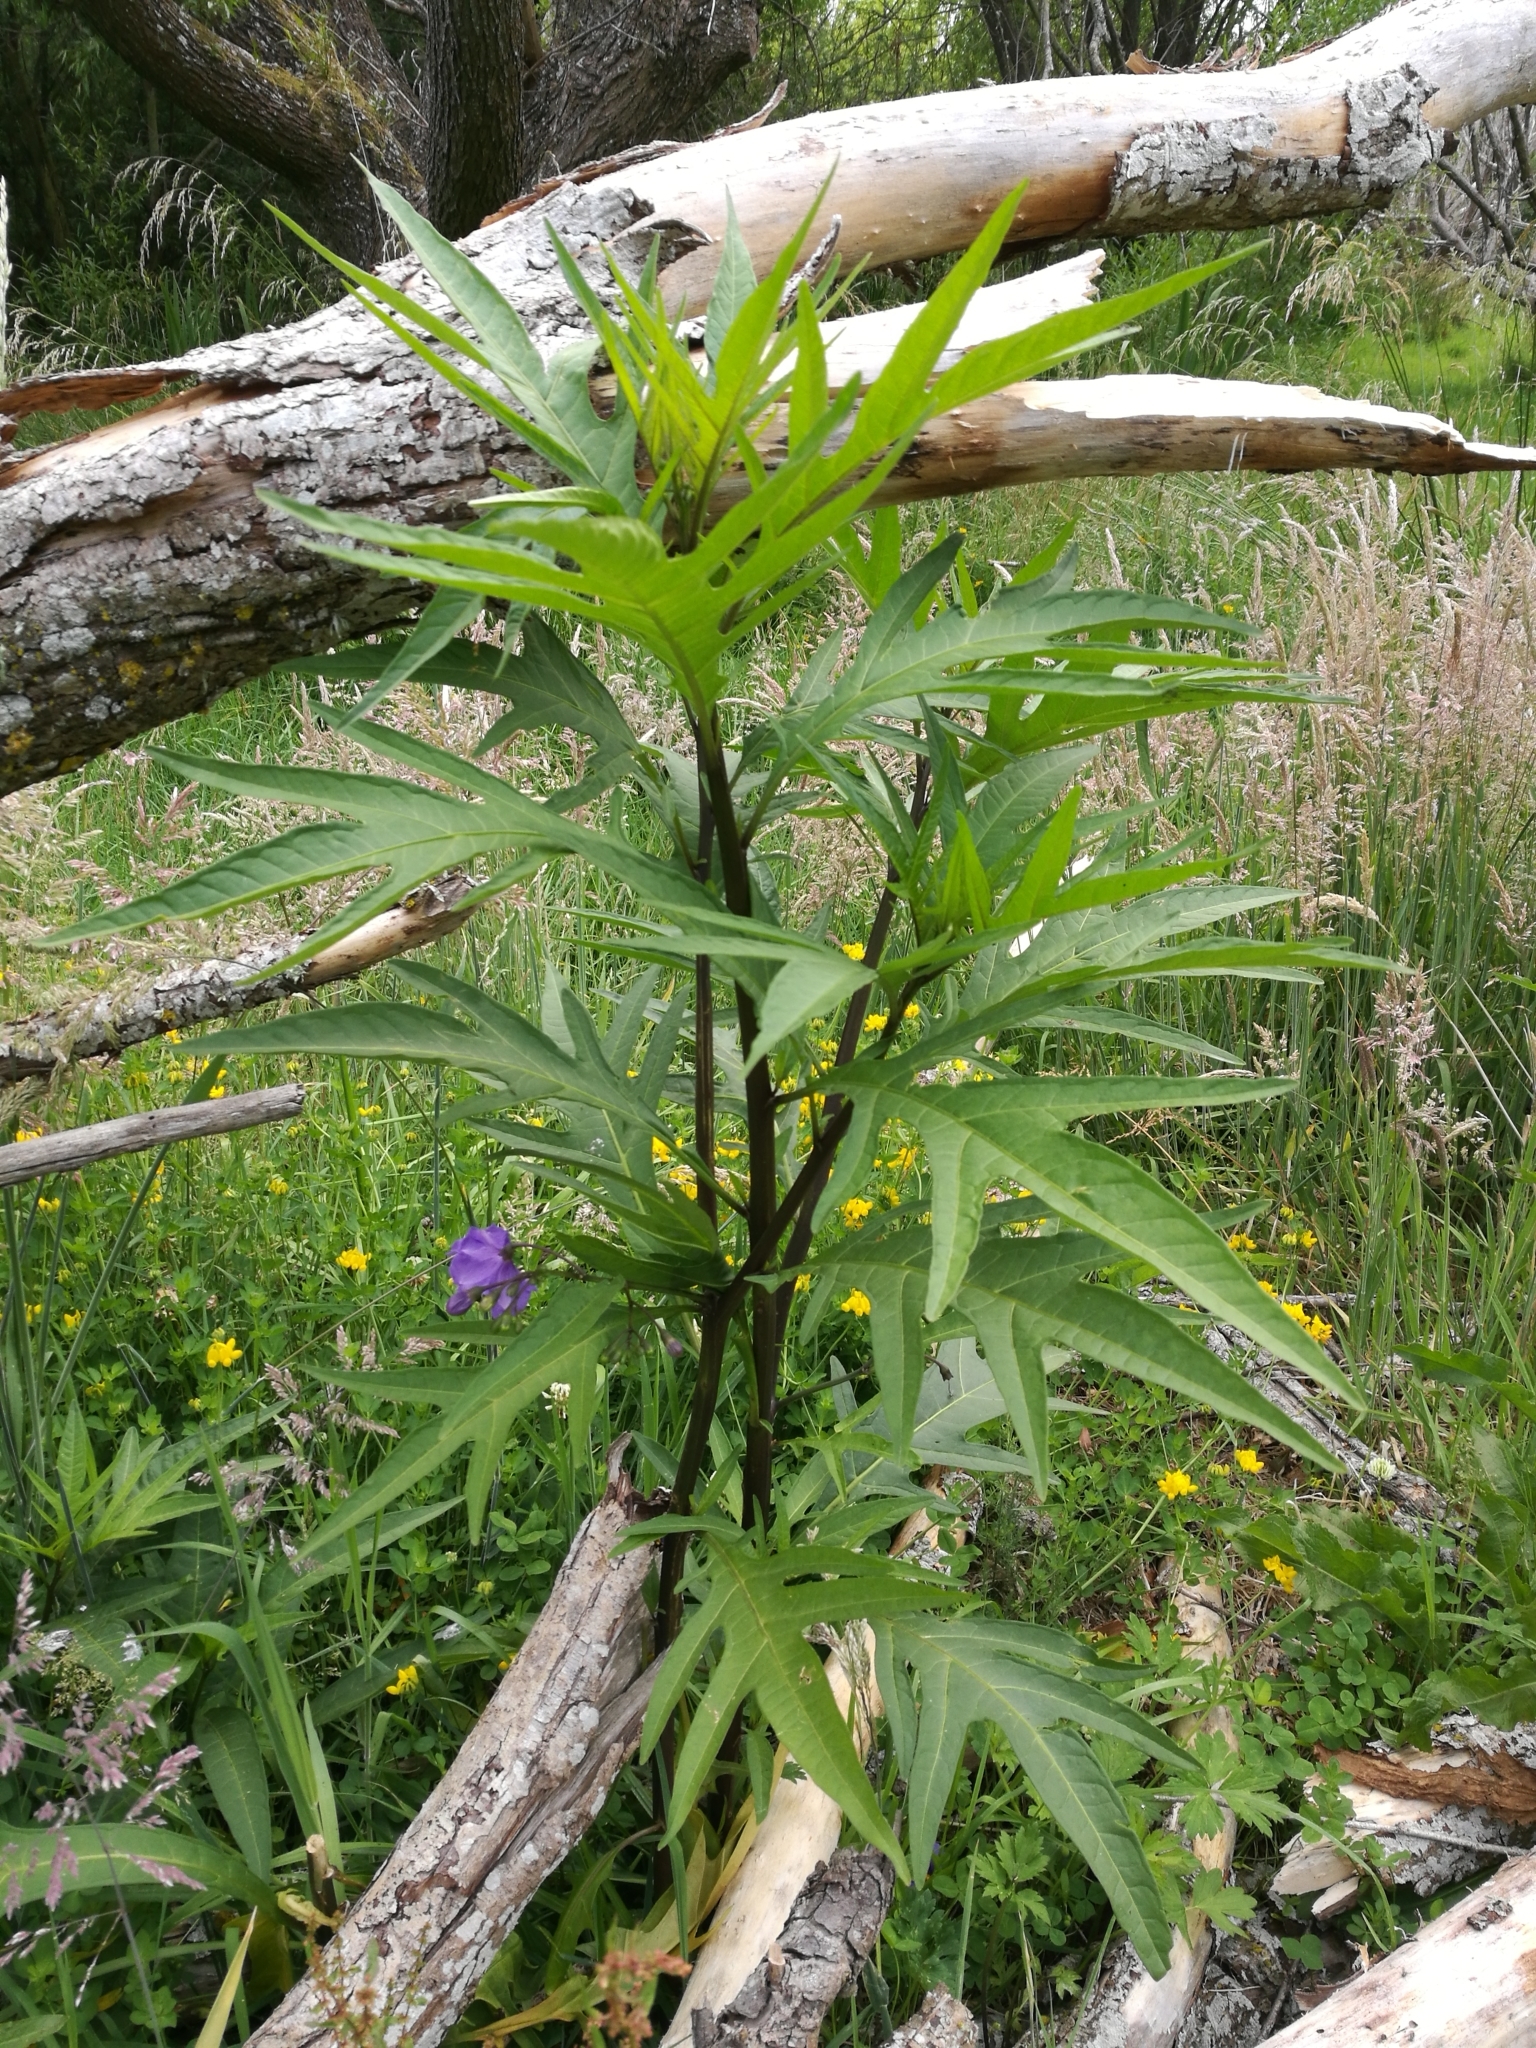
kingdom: Plantae
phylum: Tracheophyta
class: Magnoliopsida
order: Solanales
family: Solanaceae
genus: Solanum
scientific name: Solanum laciniatum
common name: Kangaroo-apple
